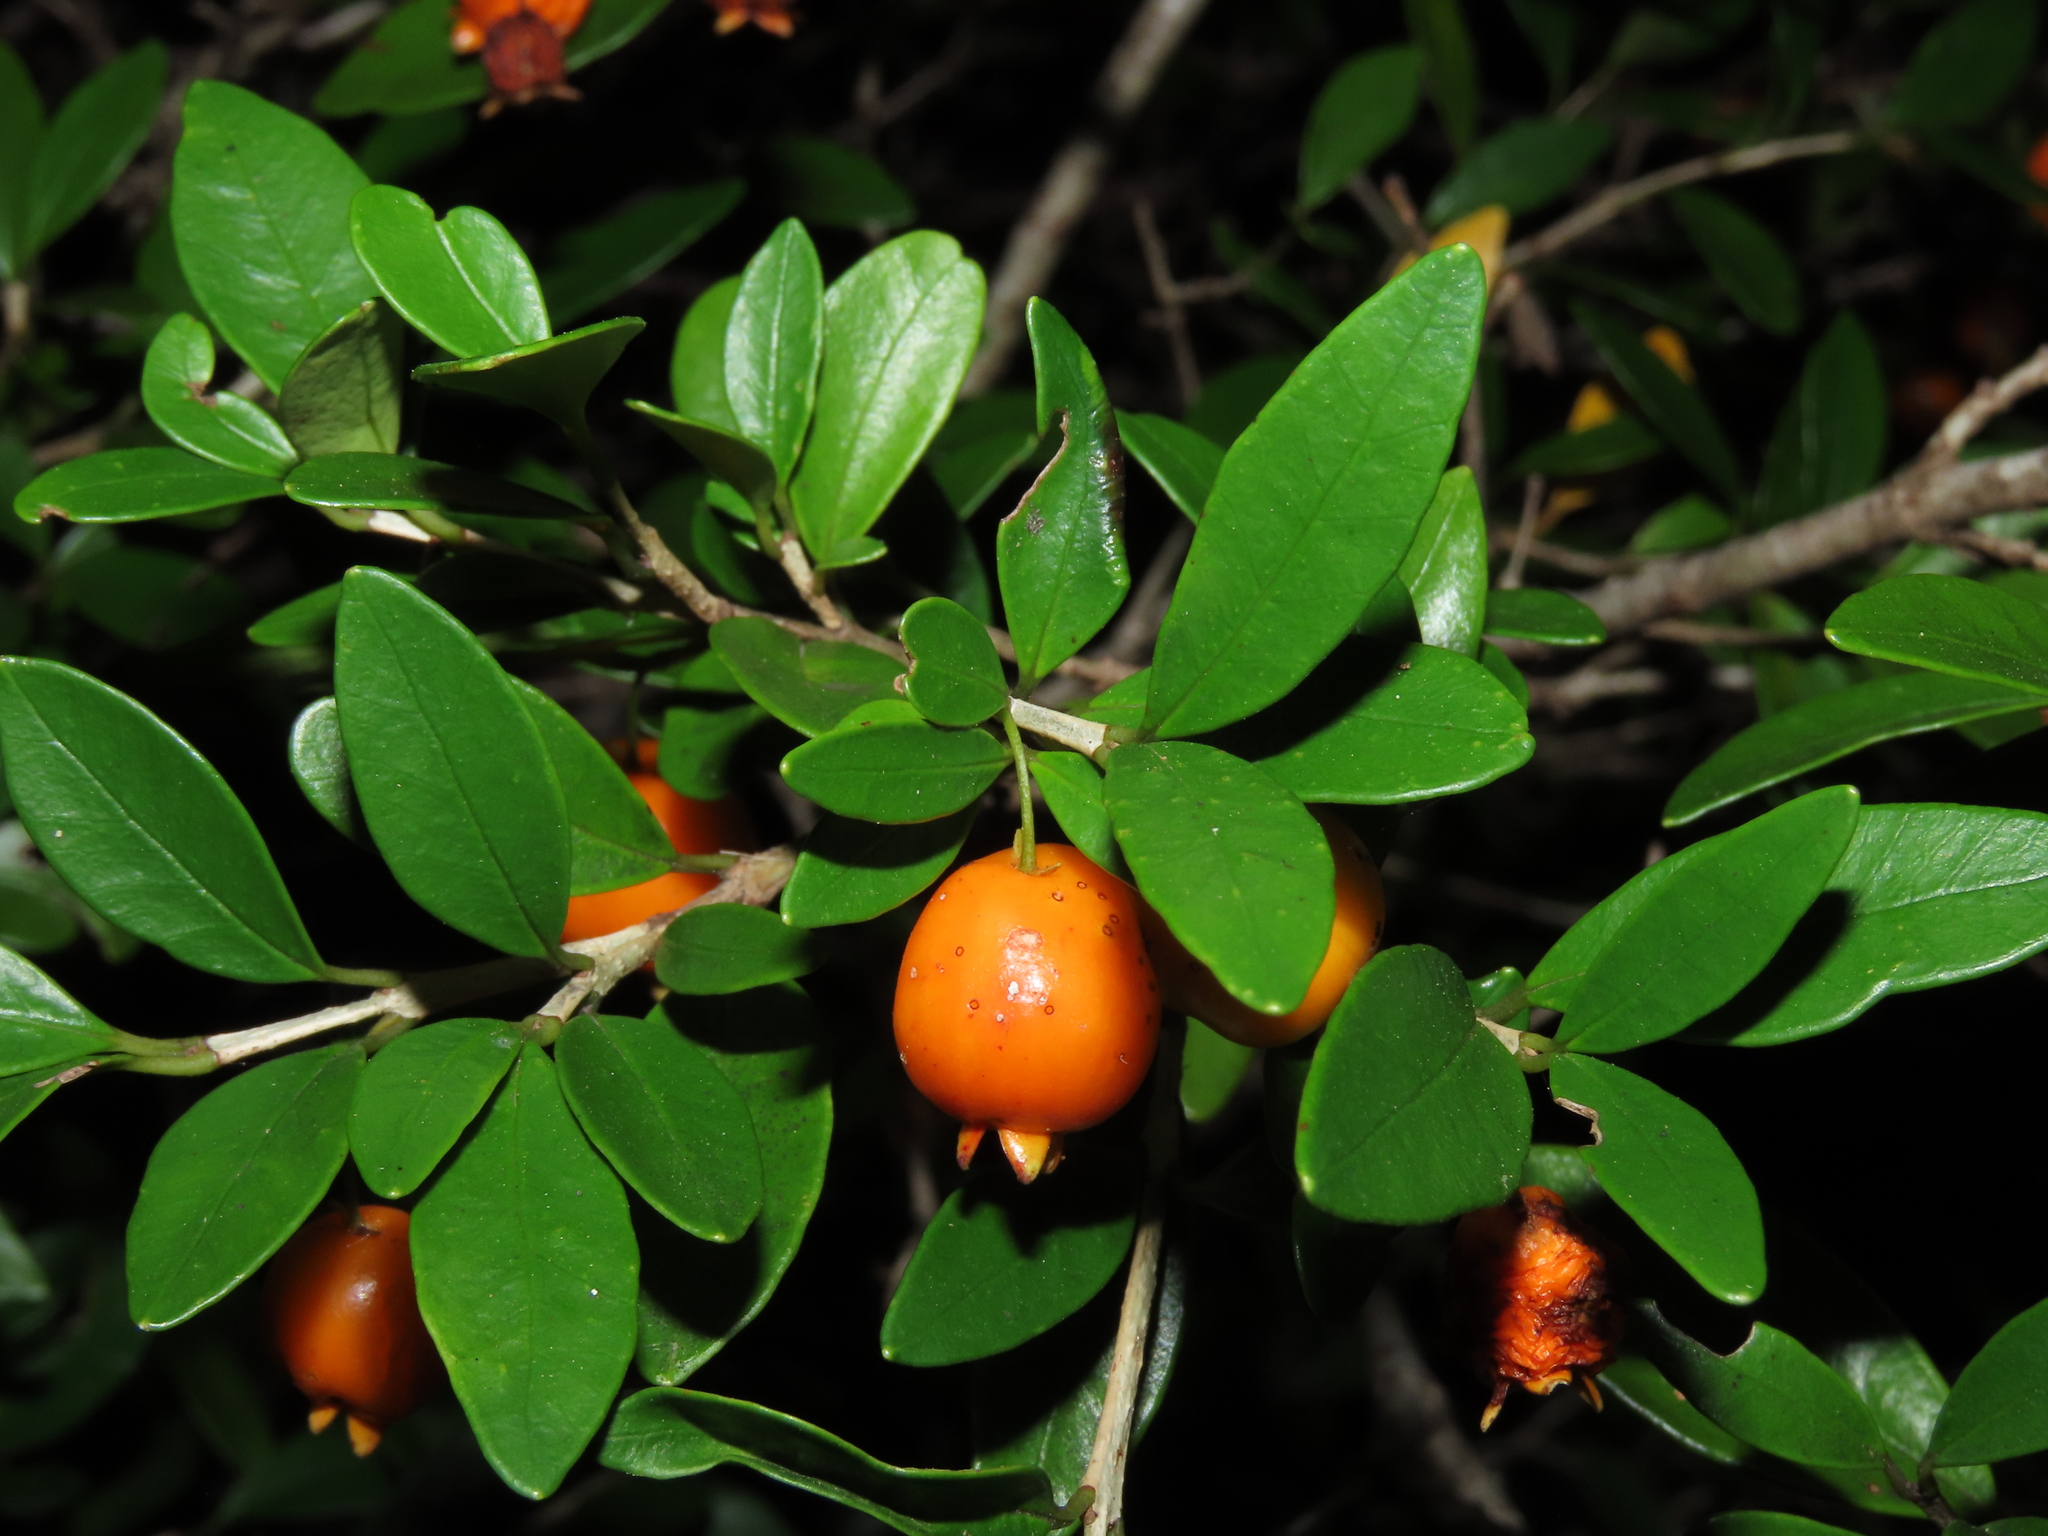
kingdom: Plantae
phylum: Tracheophyta
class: Magnoliopsida
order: Myrtales
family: Myrtaceae
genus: Myrceugenia
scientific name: Myrceugenia chrysocarpa
